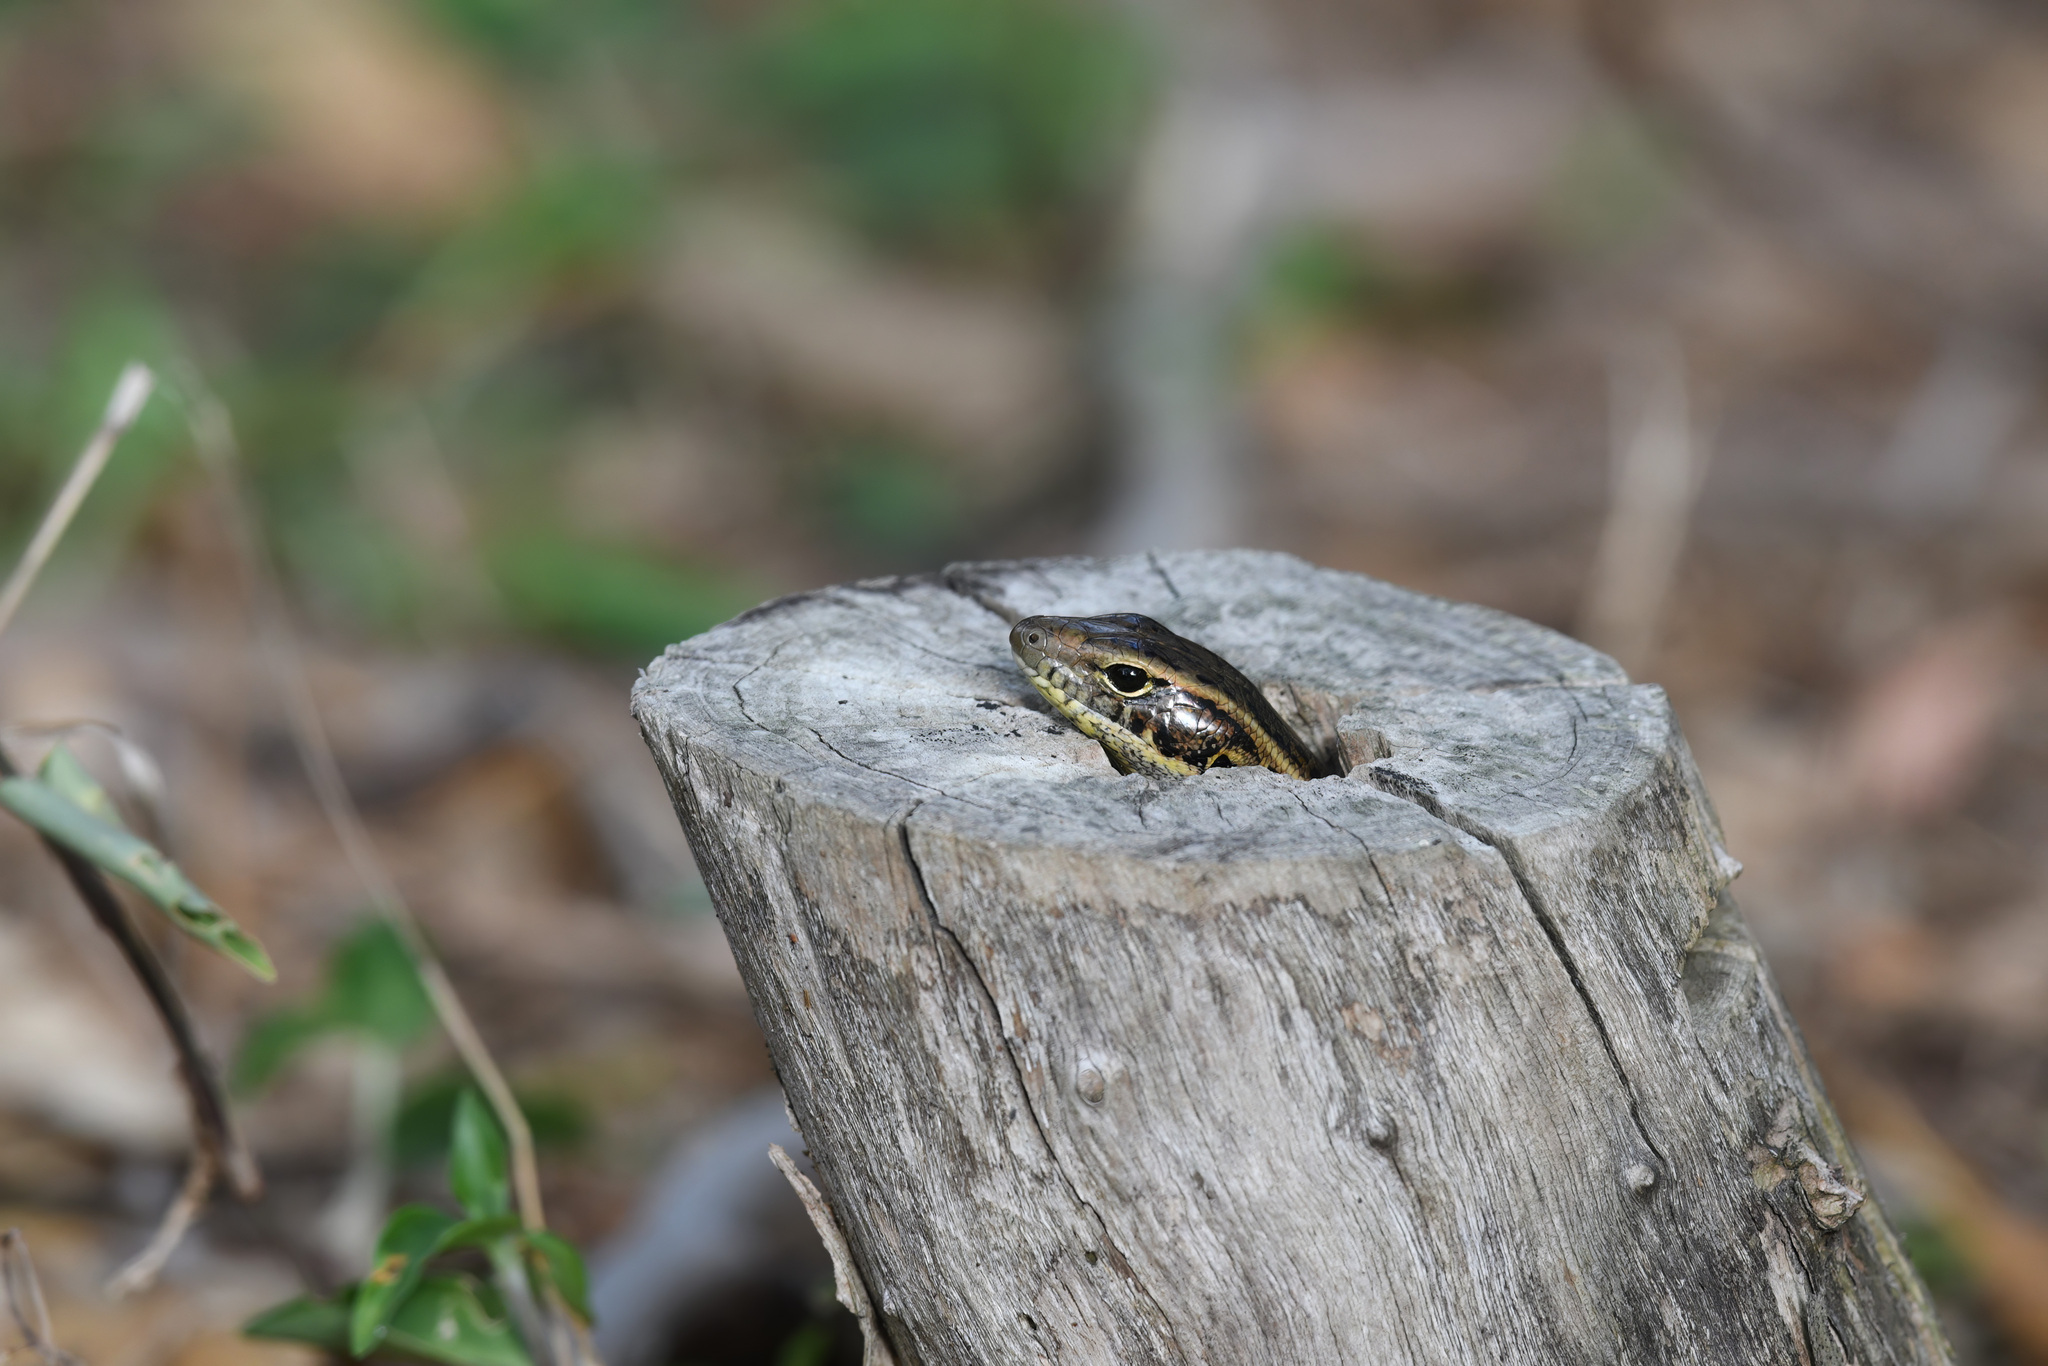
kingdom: Animalia
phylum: Chordata
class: Squamata
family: Scincidae
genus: Eulamprus
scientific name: Eulamprus quoyii
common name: Eastern water skink
